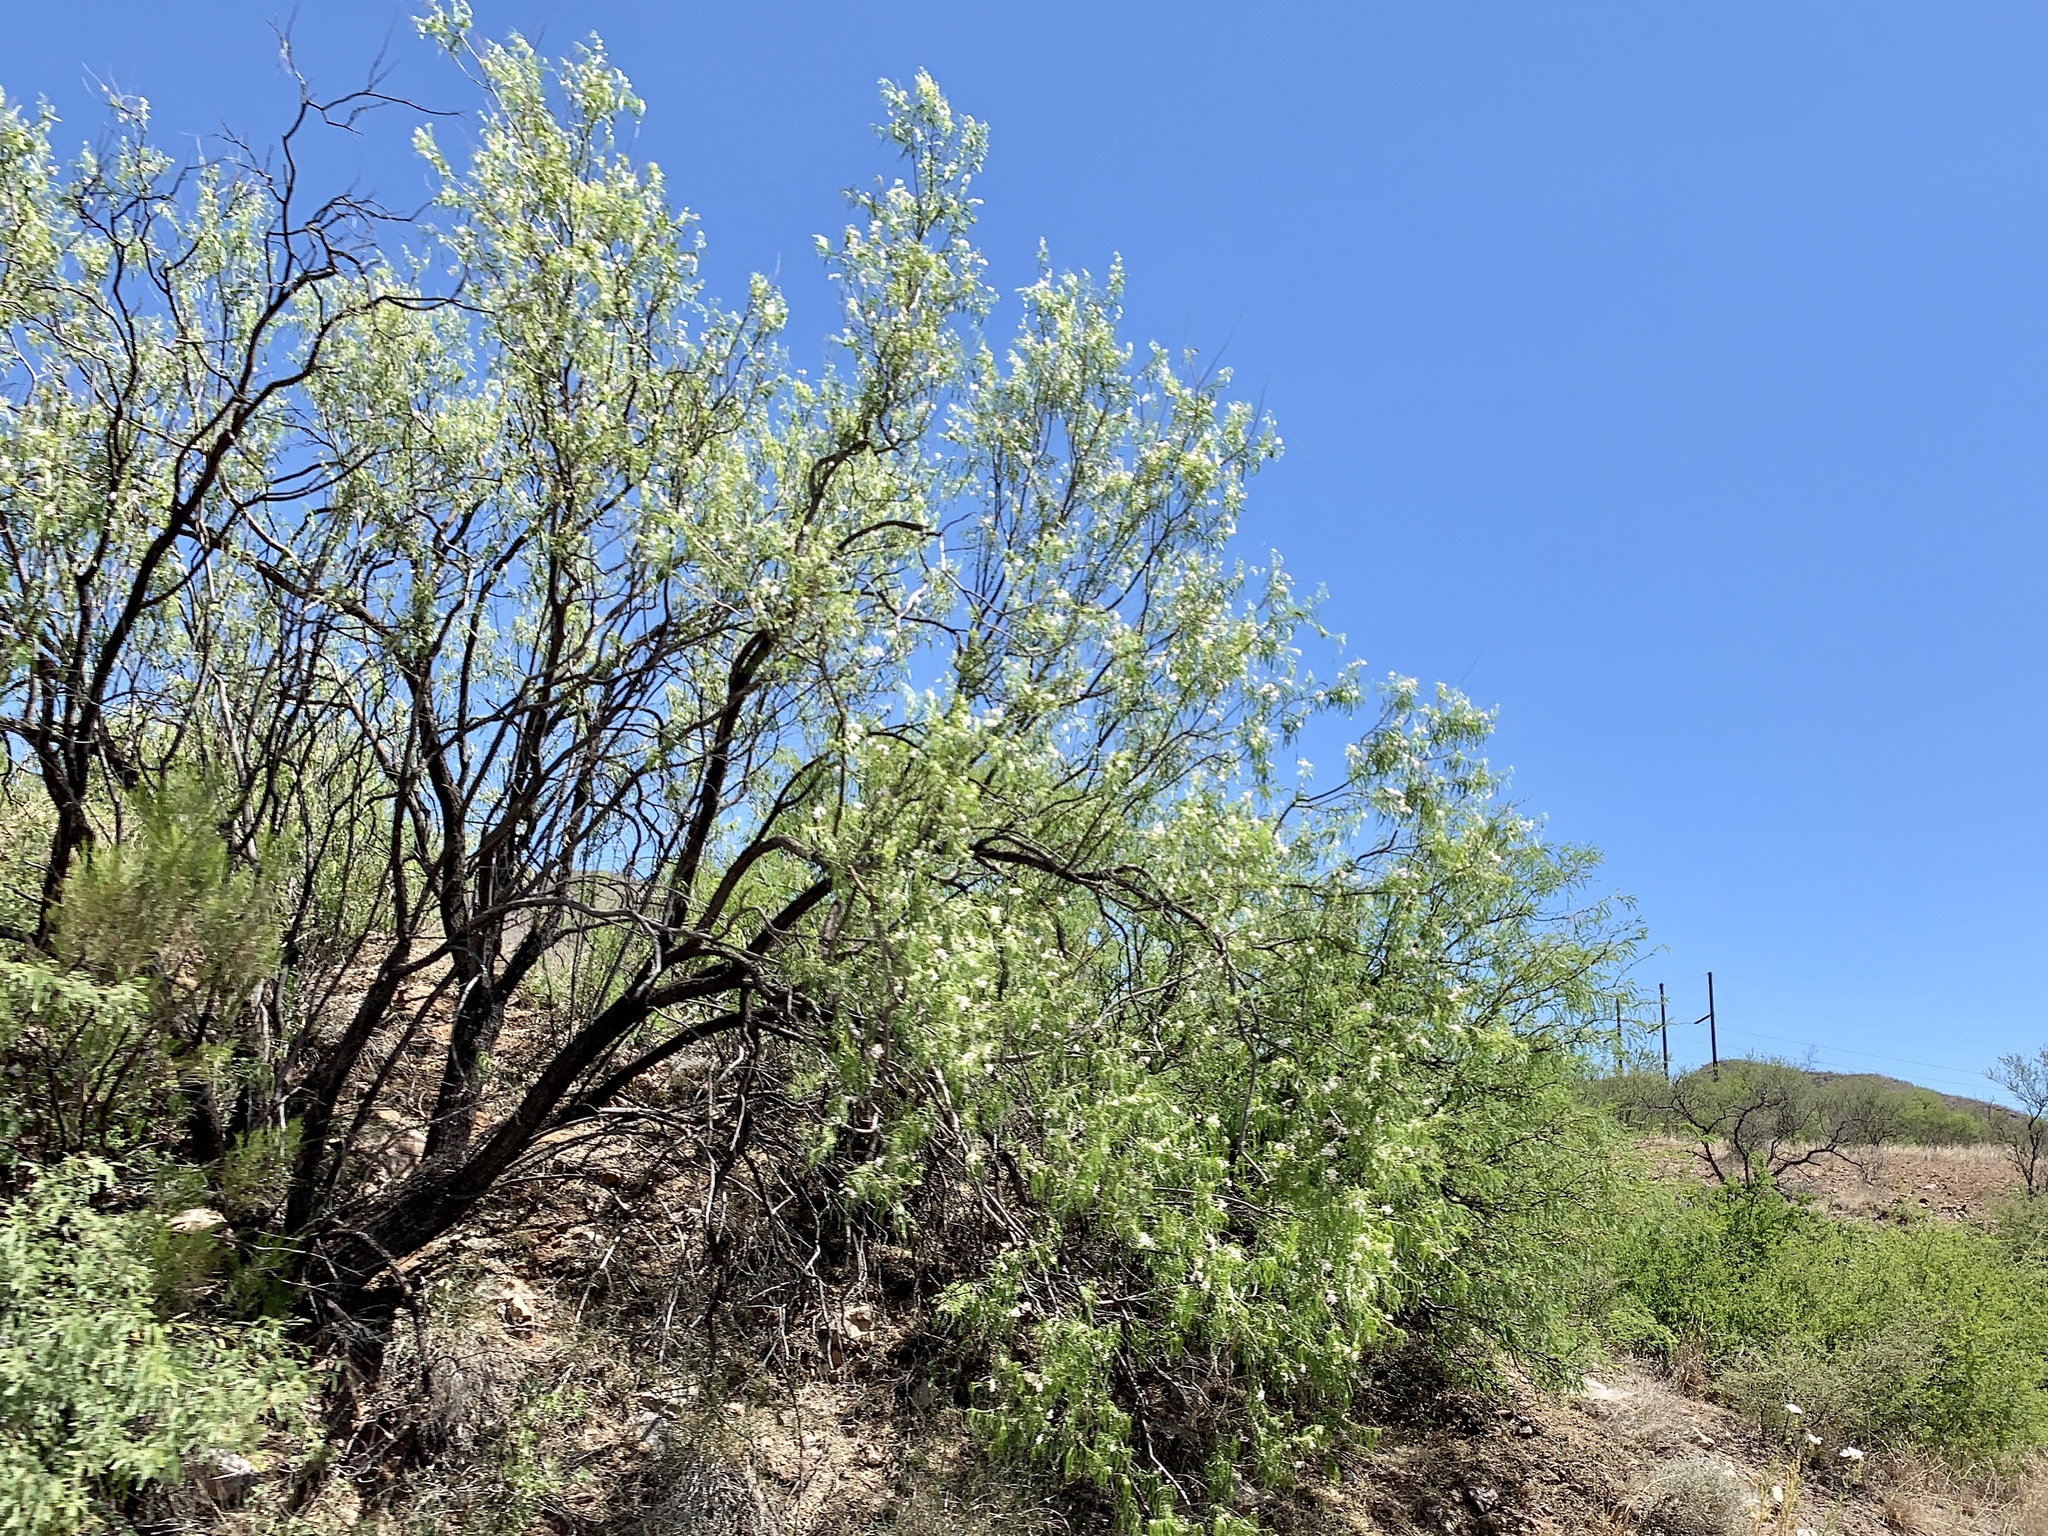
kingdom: Plantae
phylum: Tracheophyta
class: Magnoliopsida
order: Lamiales
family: Bignoniaceae
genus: Chilopsis
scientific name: Chilopsis linearis
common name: Desert-willow
